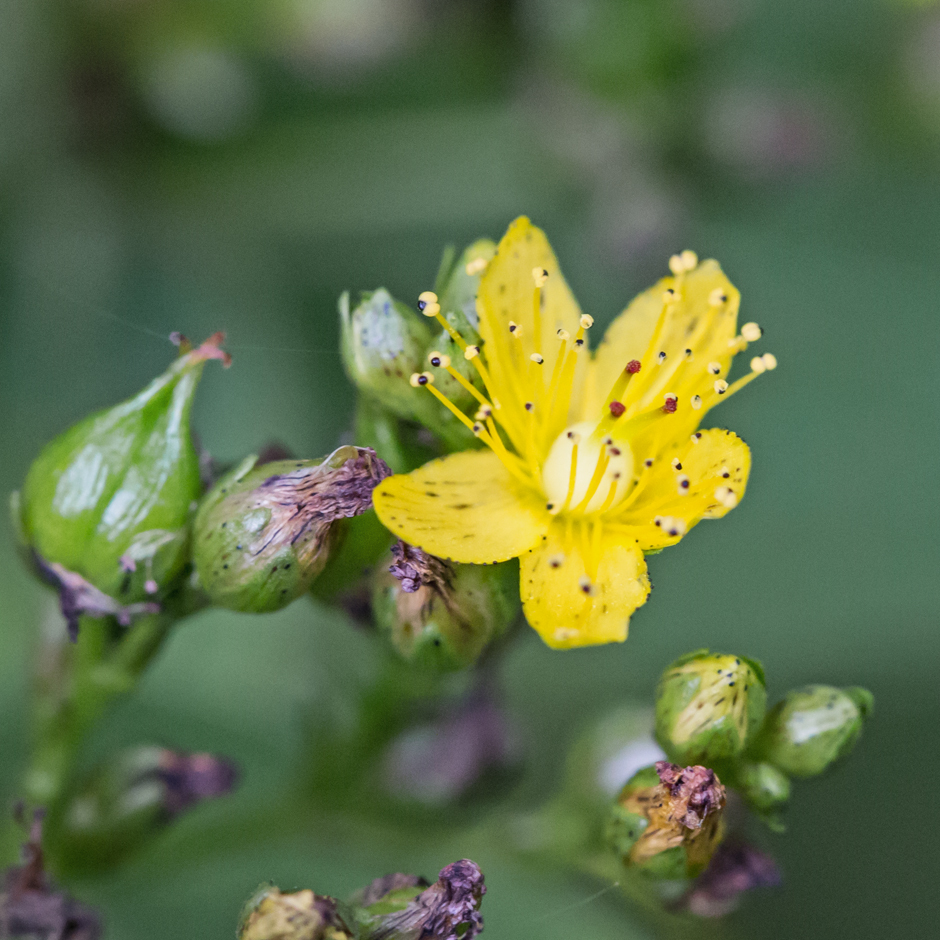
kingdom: Plantae
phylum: Tracheophyta
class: Magnoliopsida
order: Malpighiales
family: Hypericaceae
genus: Hypericum
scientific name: Hypericum punctatum
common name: Spotted st. john's-wort
